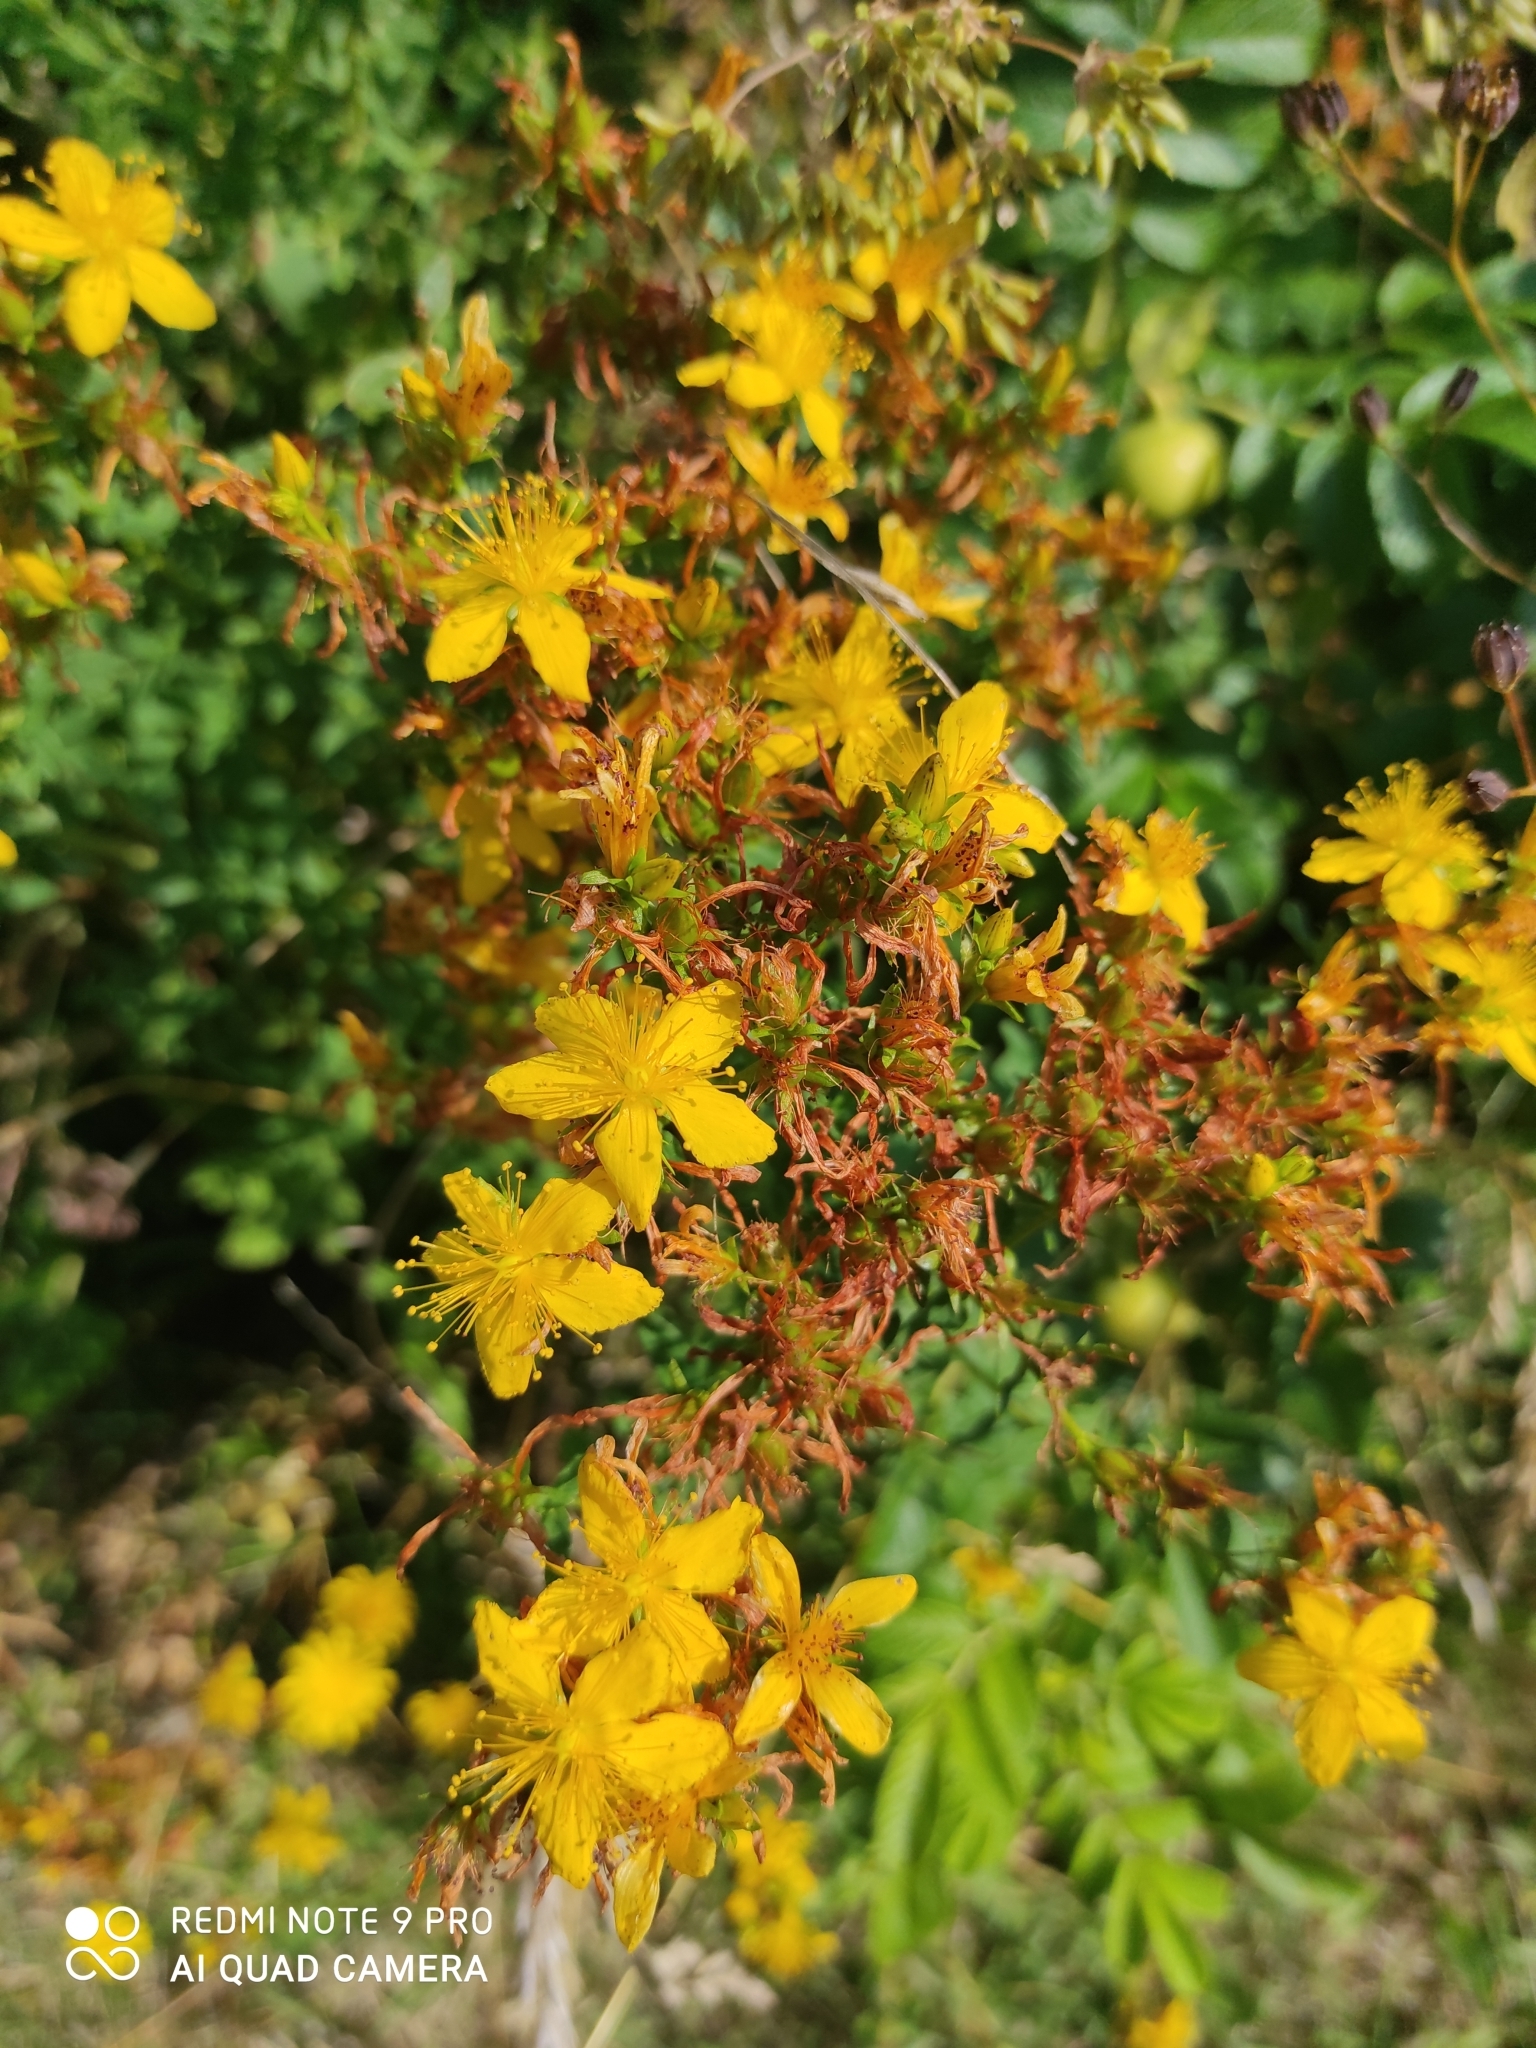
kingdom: Plantae
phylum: Tracheophyta
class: Magnoliopsida
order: Malpighiales
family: Hypericaceae
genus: Hypericum
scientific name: Hypericum perforatum
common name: Common st. johnswort
